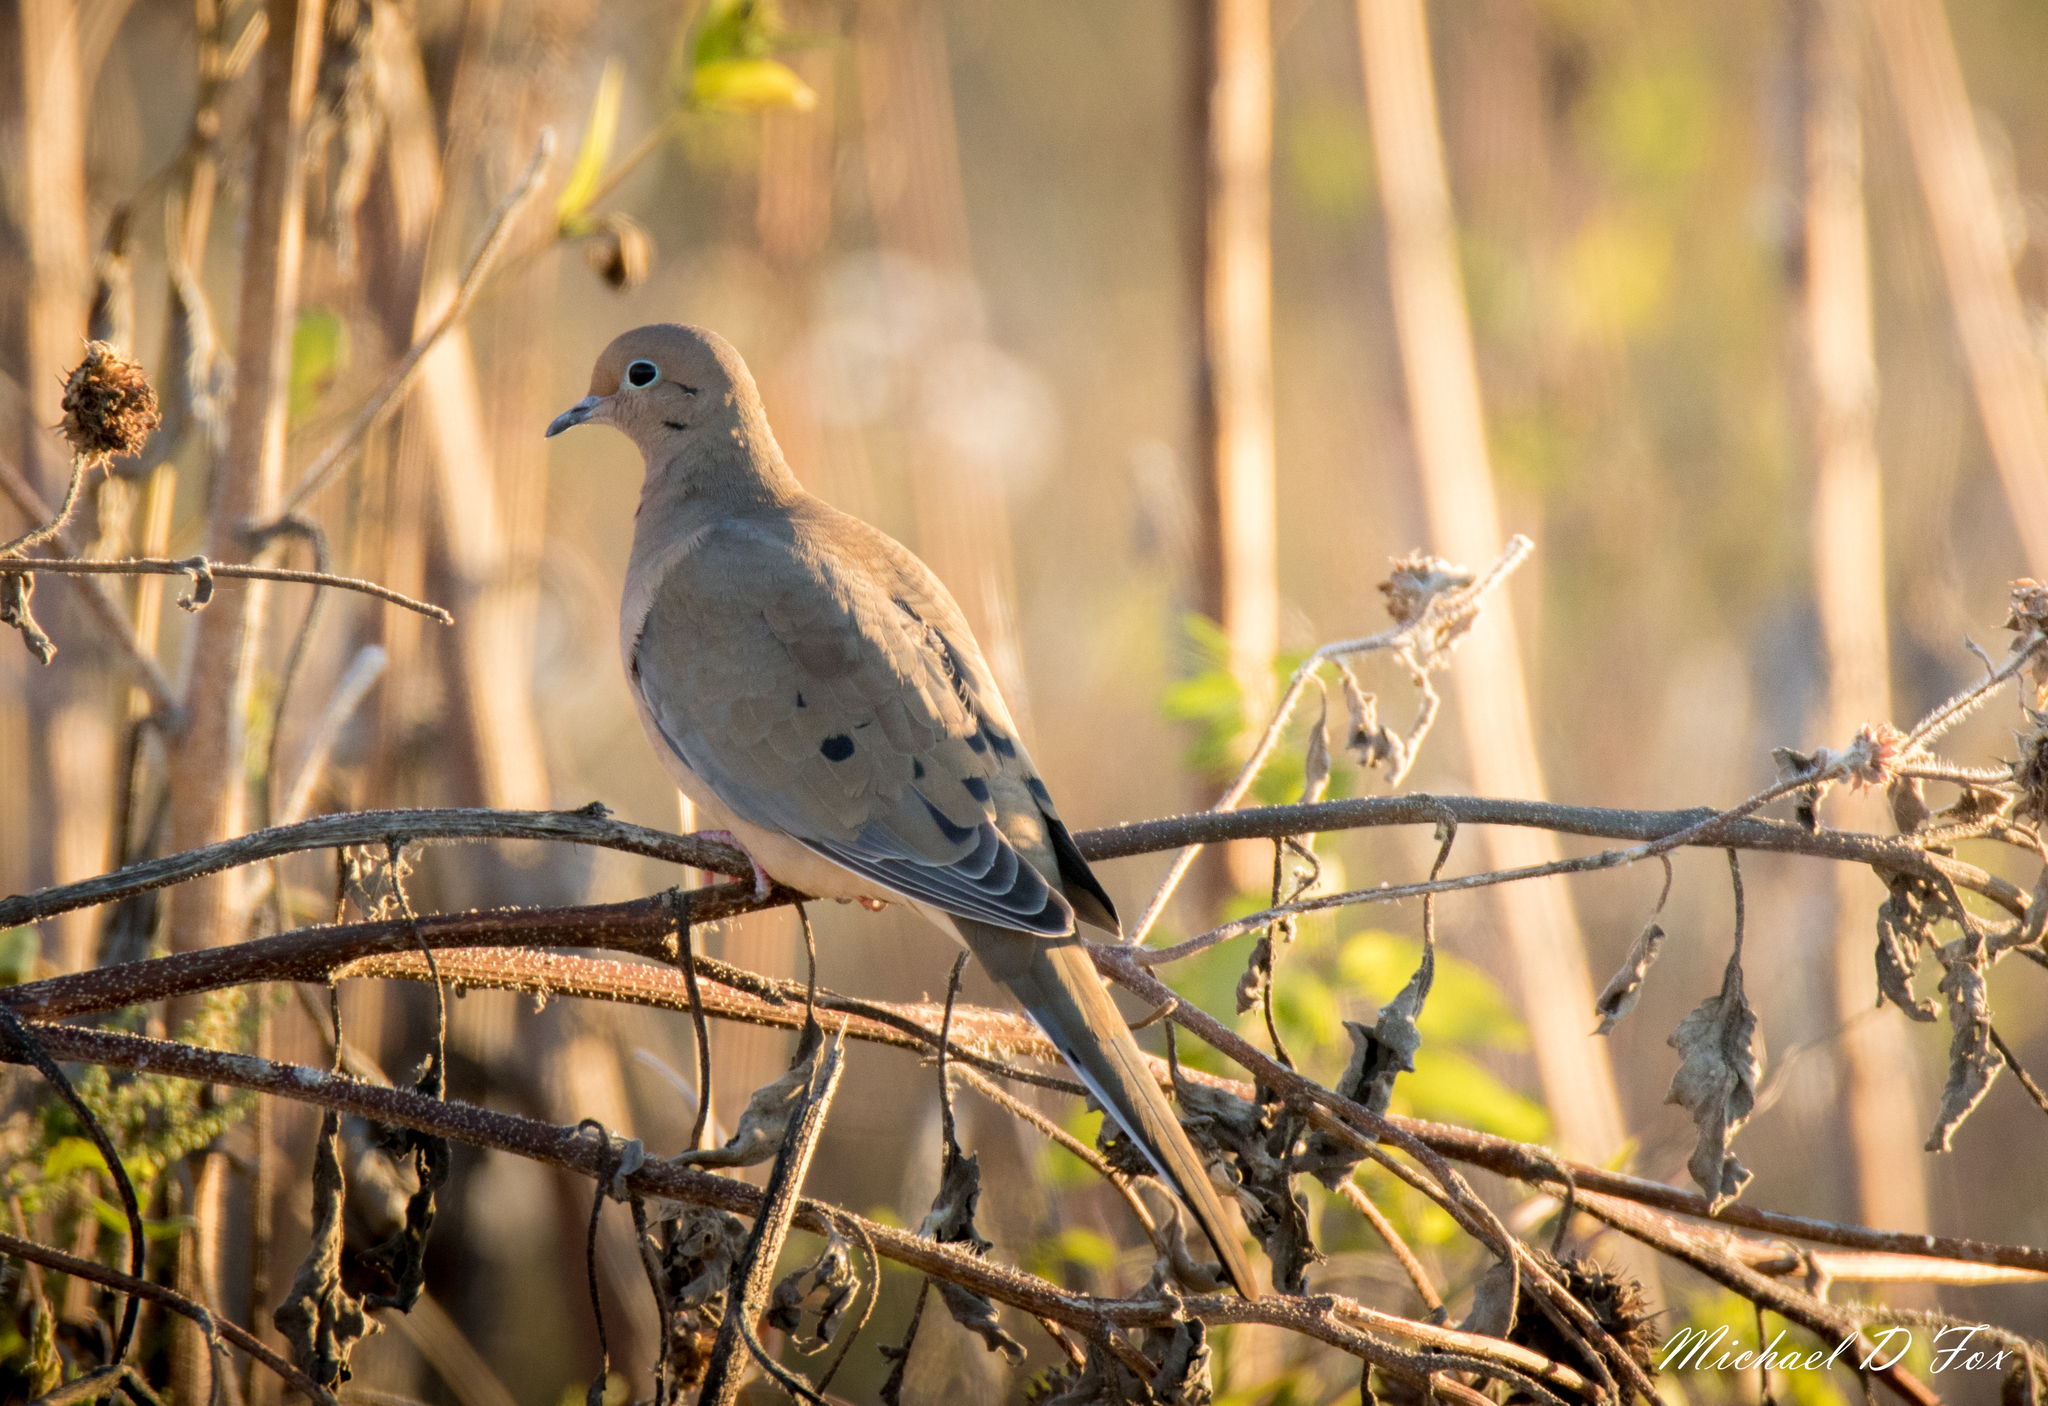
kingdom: Animalia
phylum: Chordata
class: Aves
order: Columbiformes
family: Columbidae
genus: Zenaida
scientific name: Zenaida macroura
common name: Mourning dove
